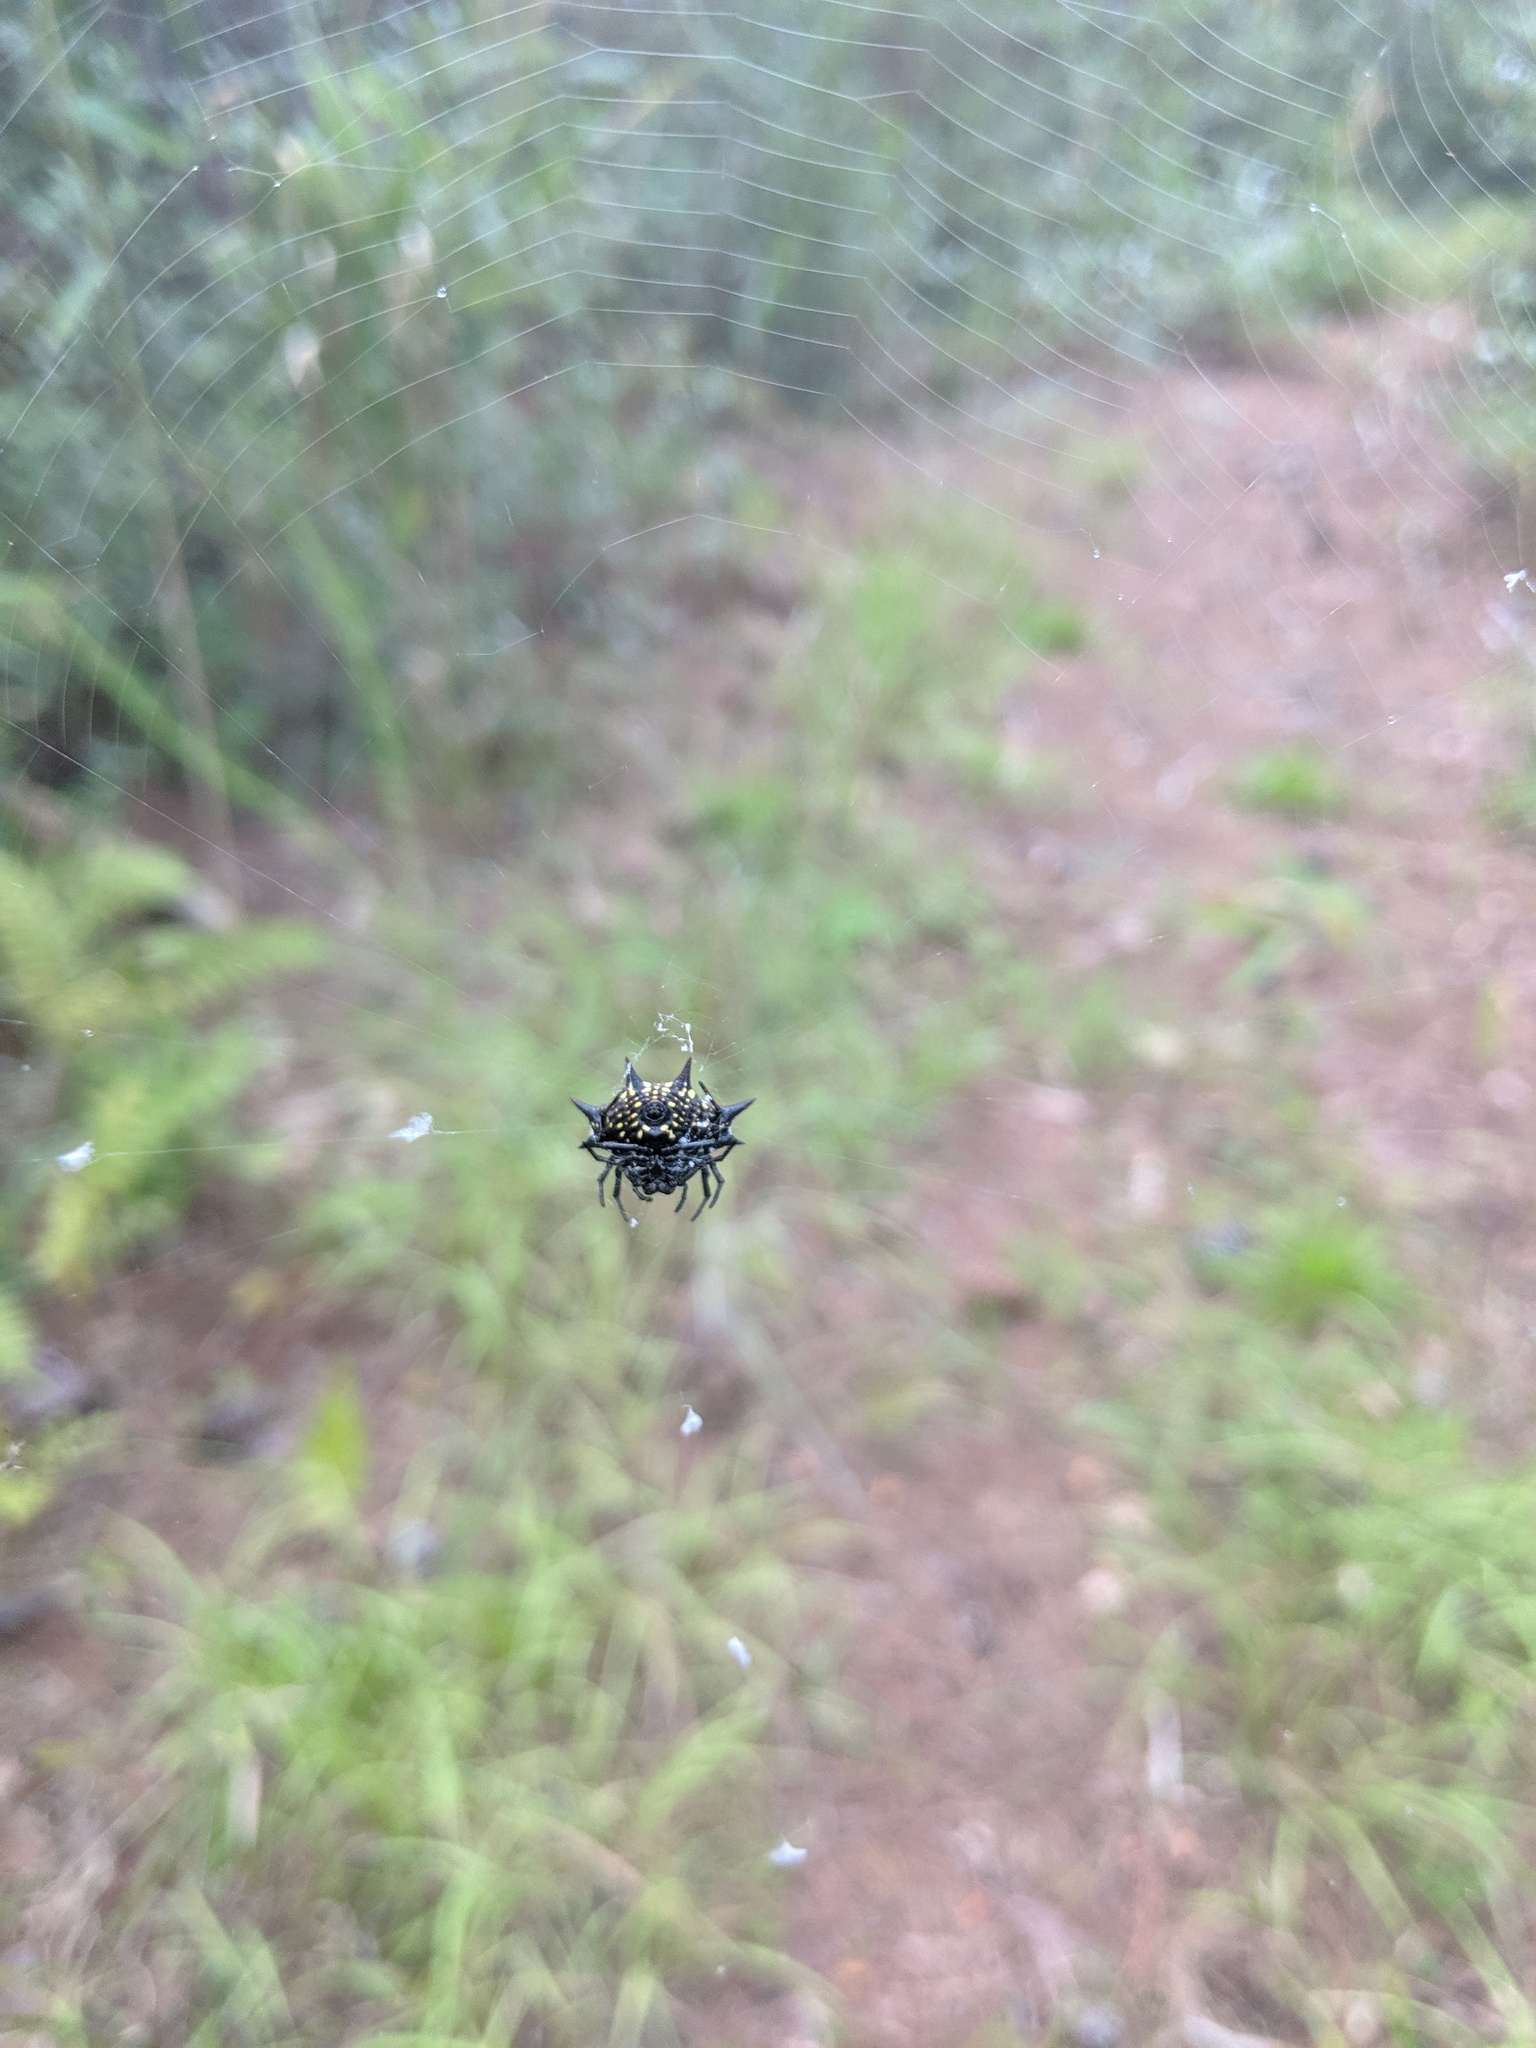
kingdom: Animalia
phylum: Arthropoda
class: Arachnida
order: Araneae
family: Araneidae
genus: Gasteracantha
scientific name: Gasteracantha cancriformis
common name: Orb weavers
